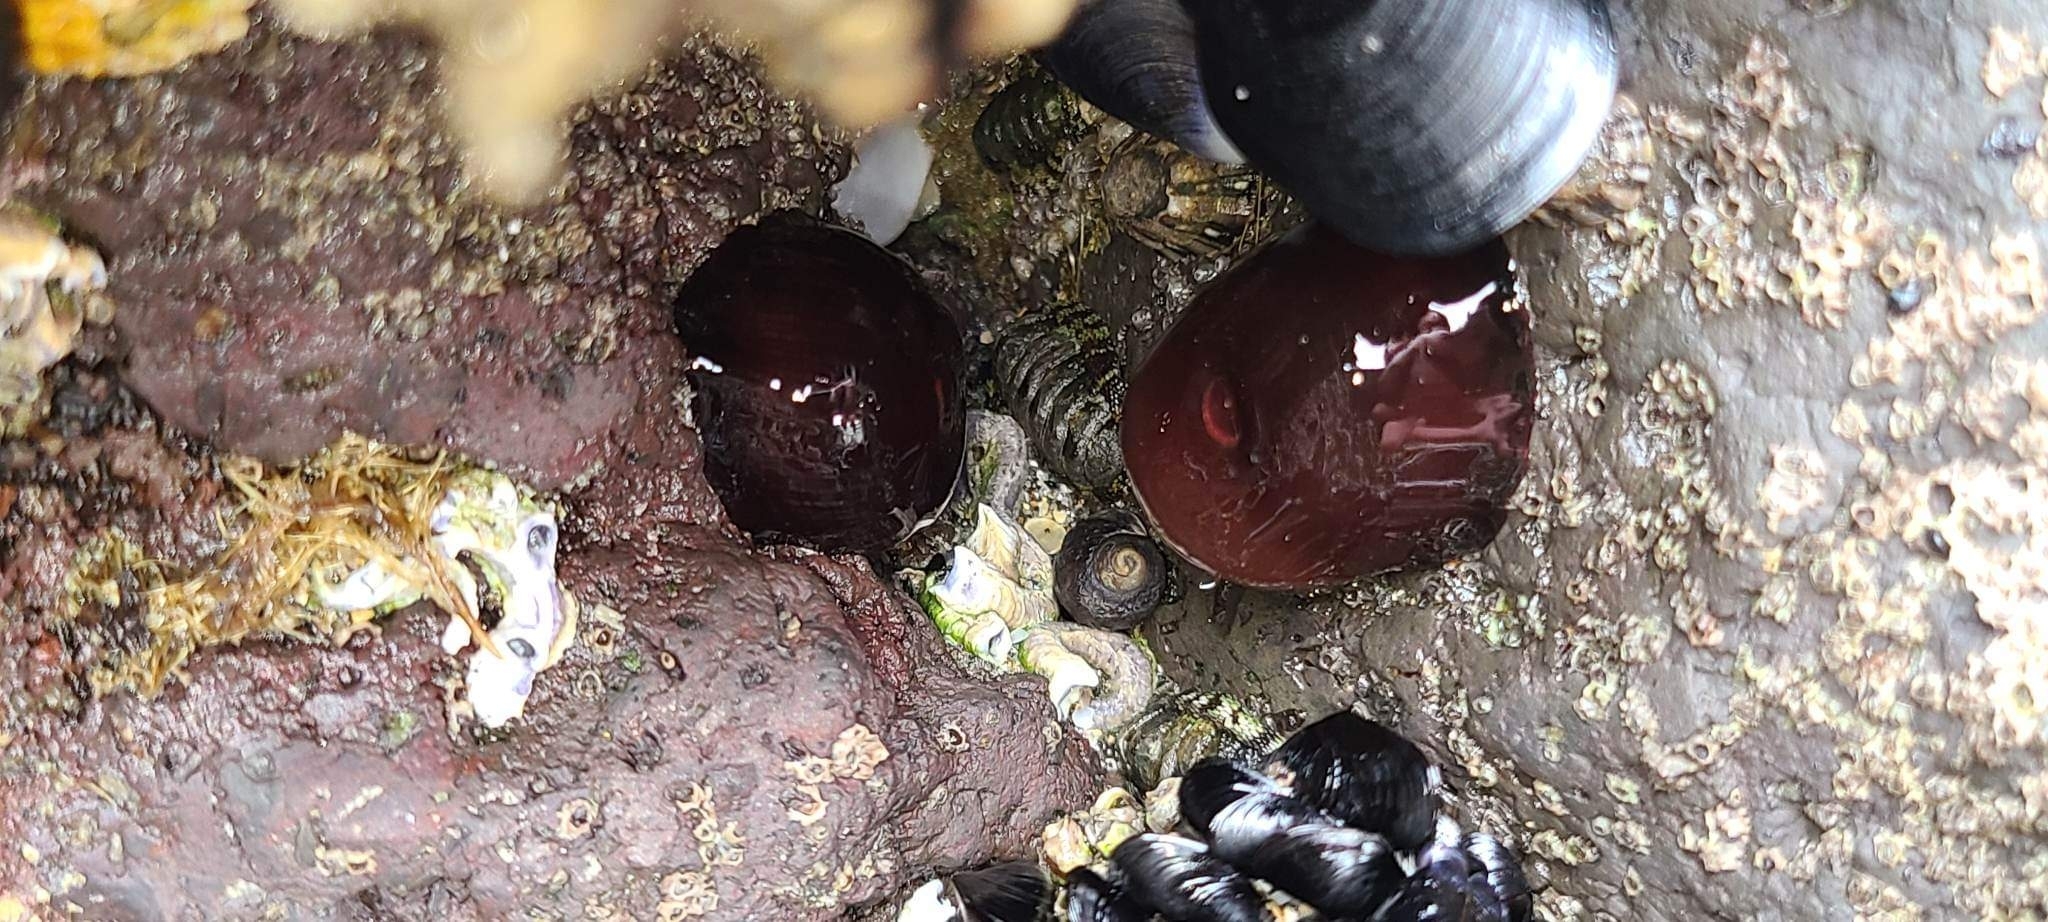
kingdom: Animalia
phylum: Cnidaria
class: Anthozoa
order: Actiniaria
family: Actiniidae
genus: Actinia
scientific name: Actinia tenebrosa
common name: Waratah anemone
